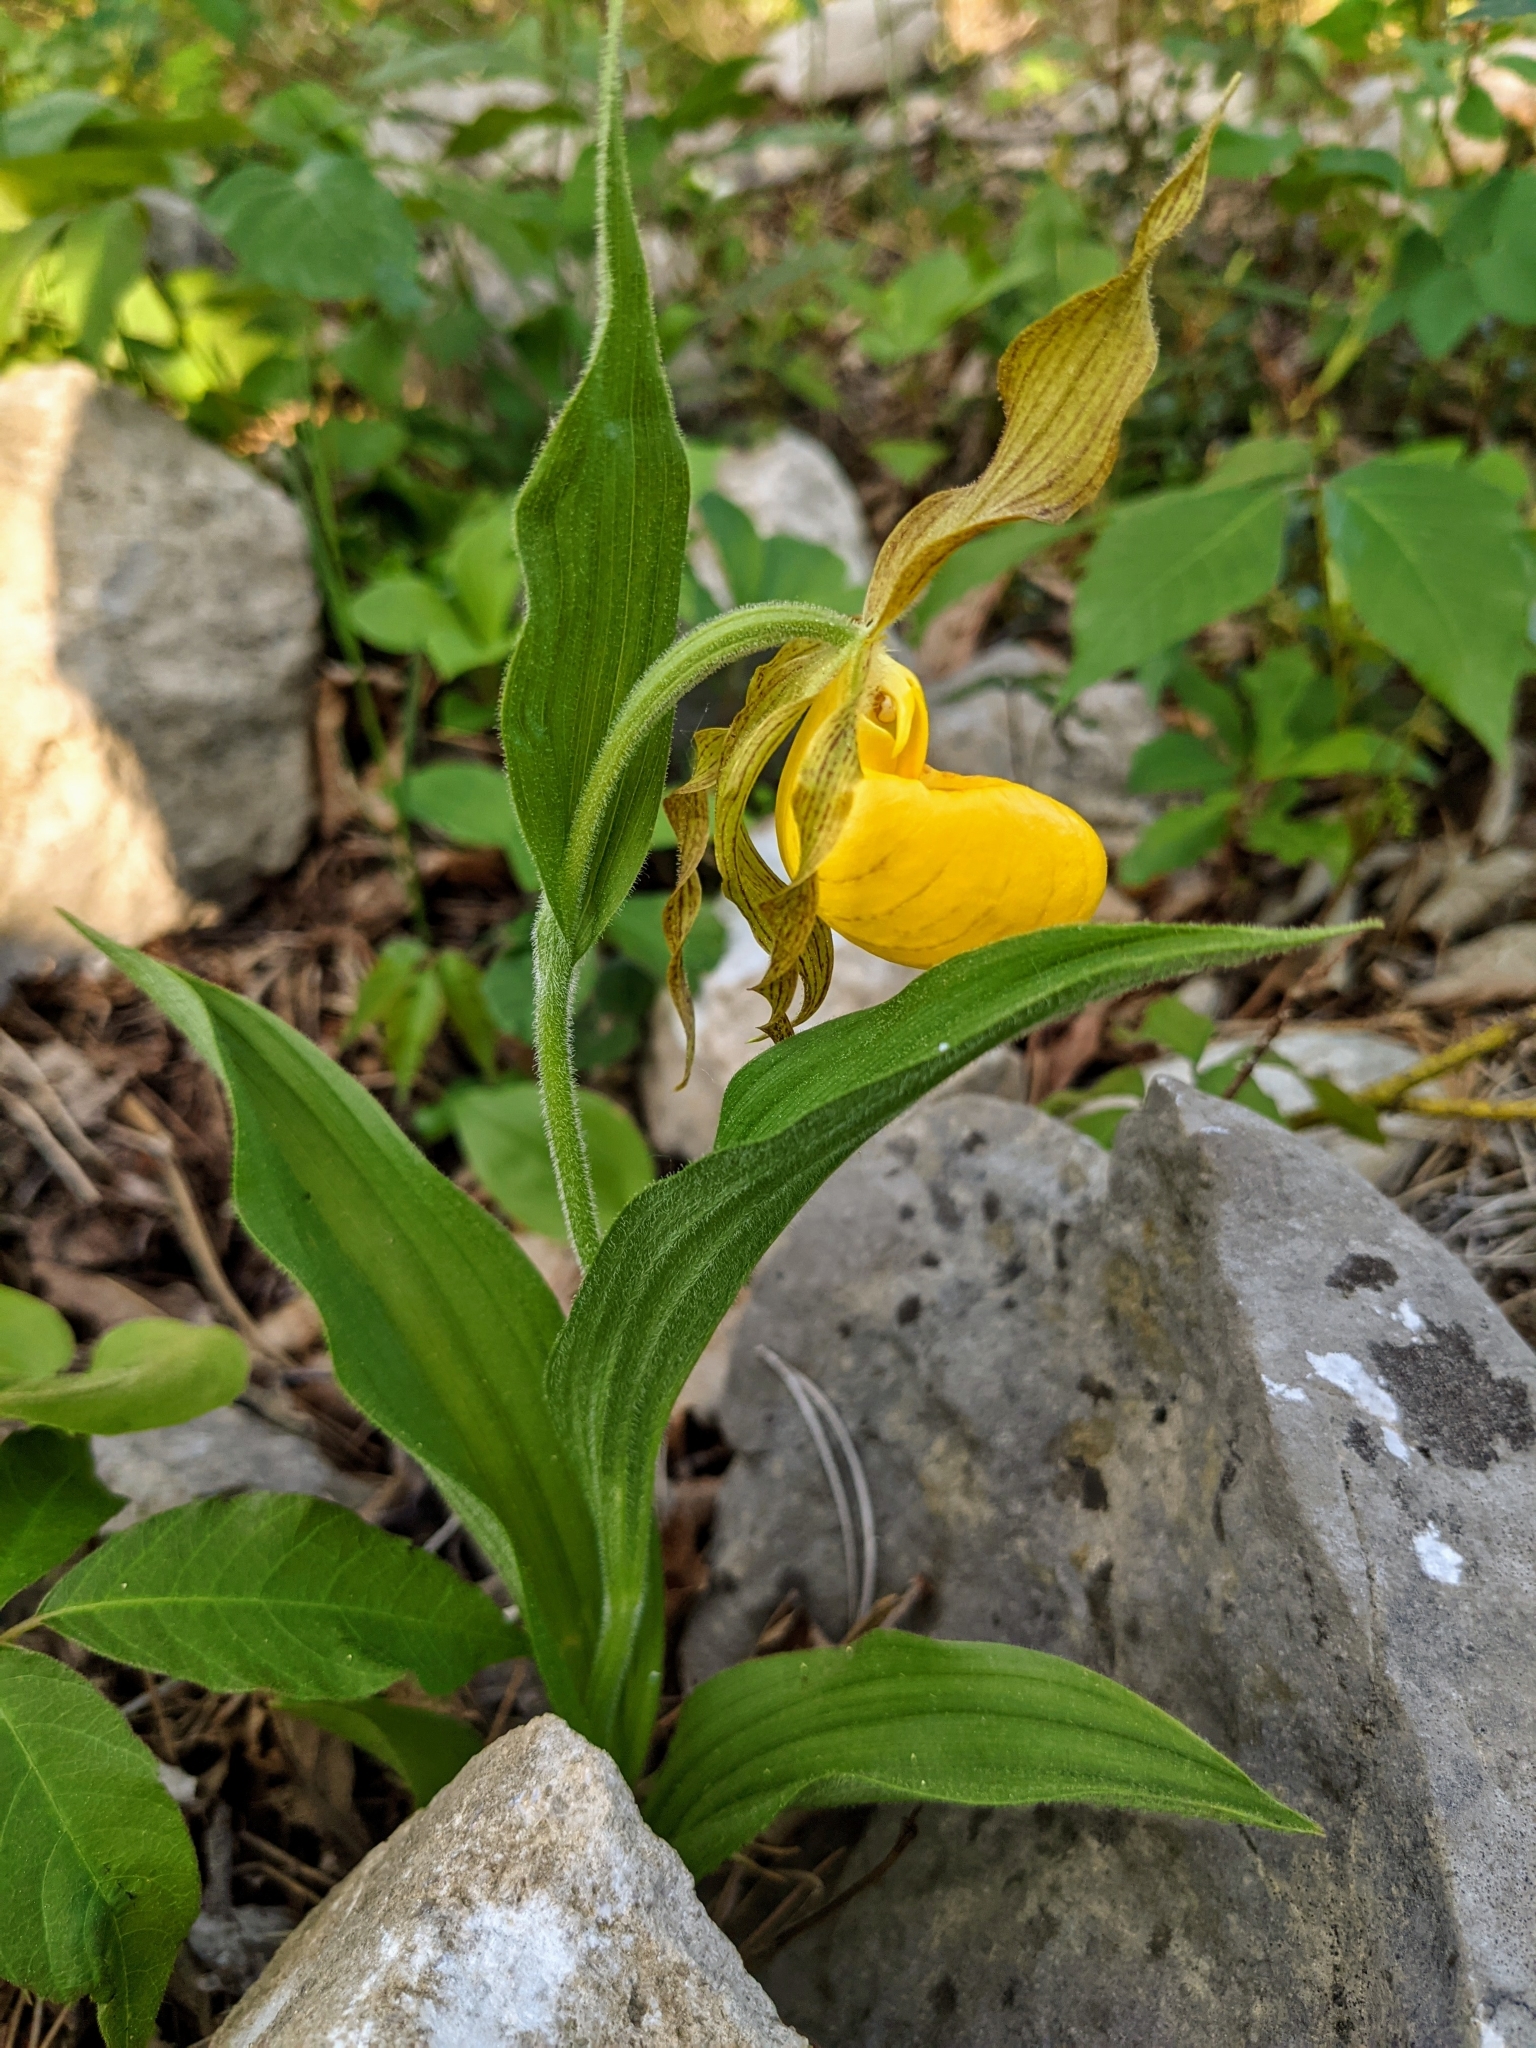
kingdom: Plantae
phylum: Tracheophyta
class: Liliopsida
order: Asparagales
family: Orchidaceae
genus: Cypripedium
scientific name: Cypripedium parviflorum
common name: American yellow lady's-slipper
